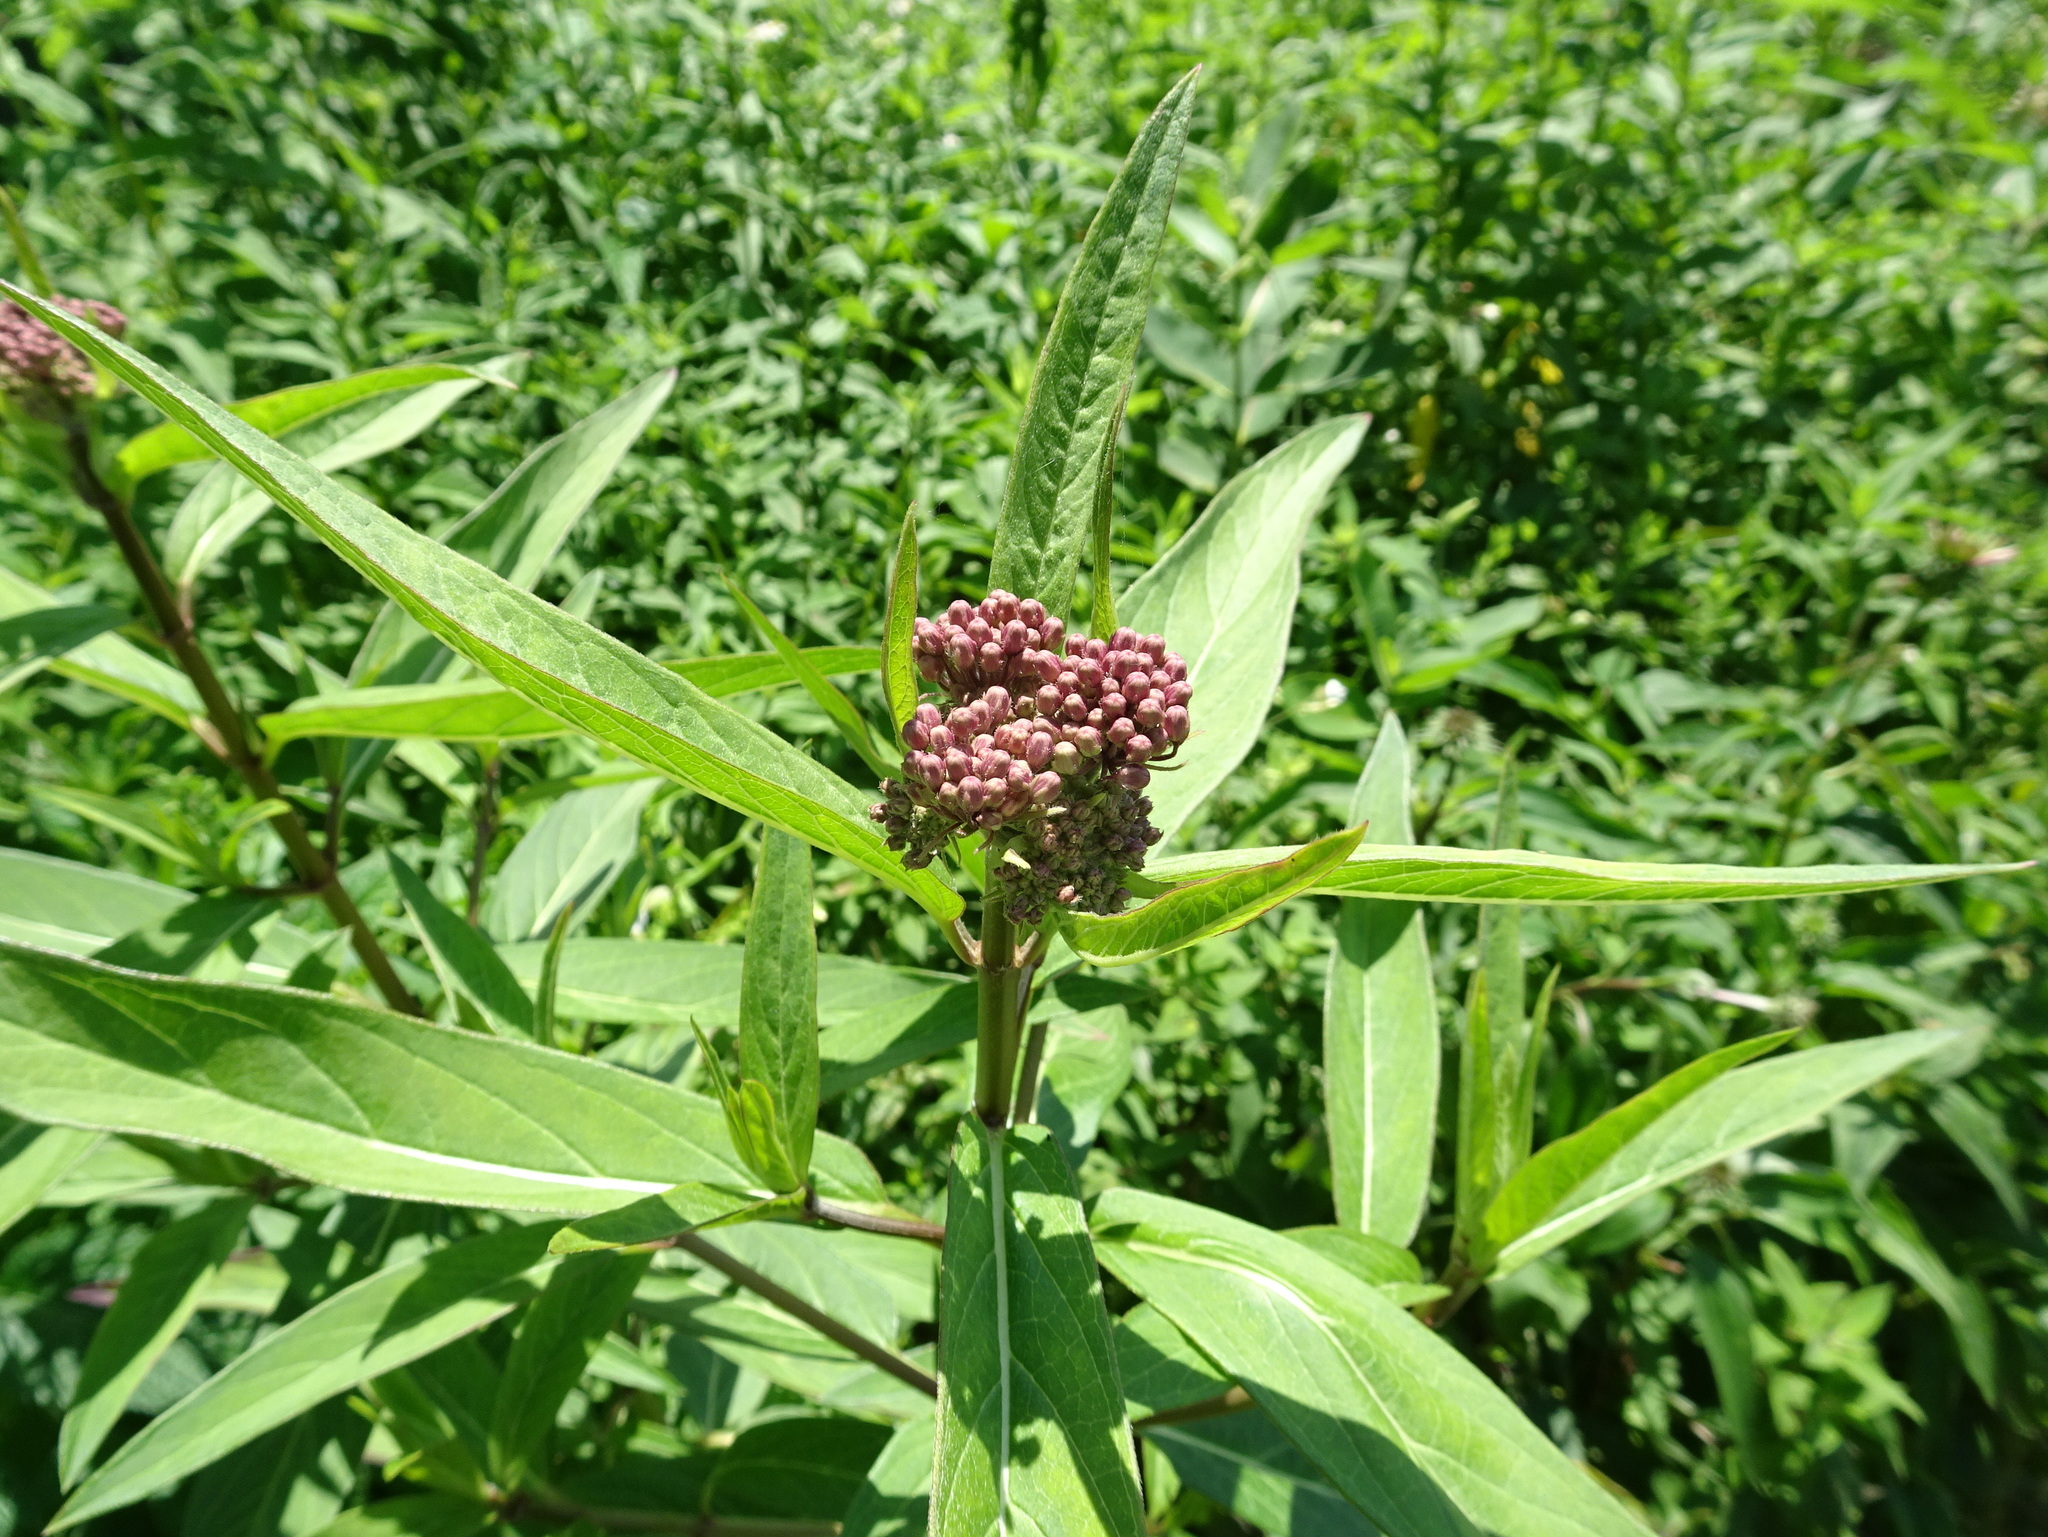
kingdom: Plantae
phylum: Tracheophyta
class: Magnoliopsida
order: Gentianales
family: Apocynaceae
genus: Asclepias
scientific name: Asclepias incarnata
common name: Swamp milkweed
